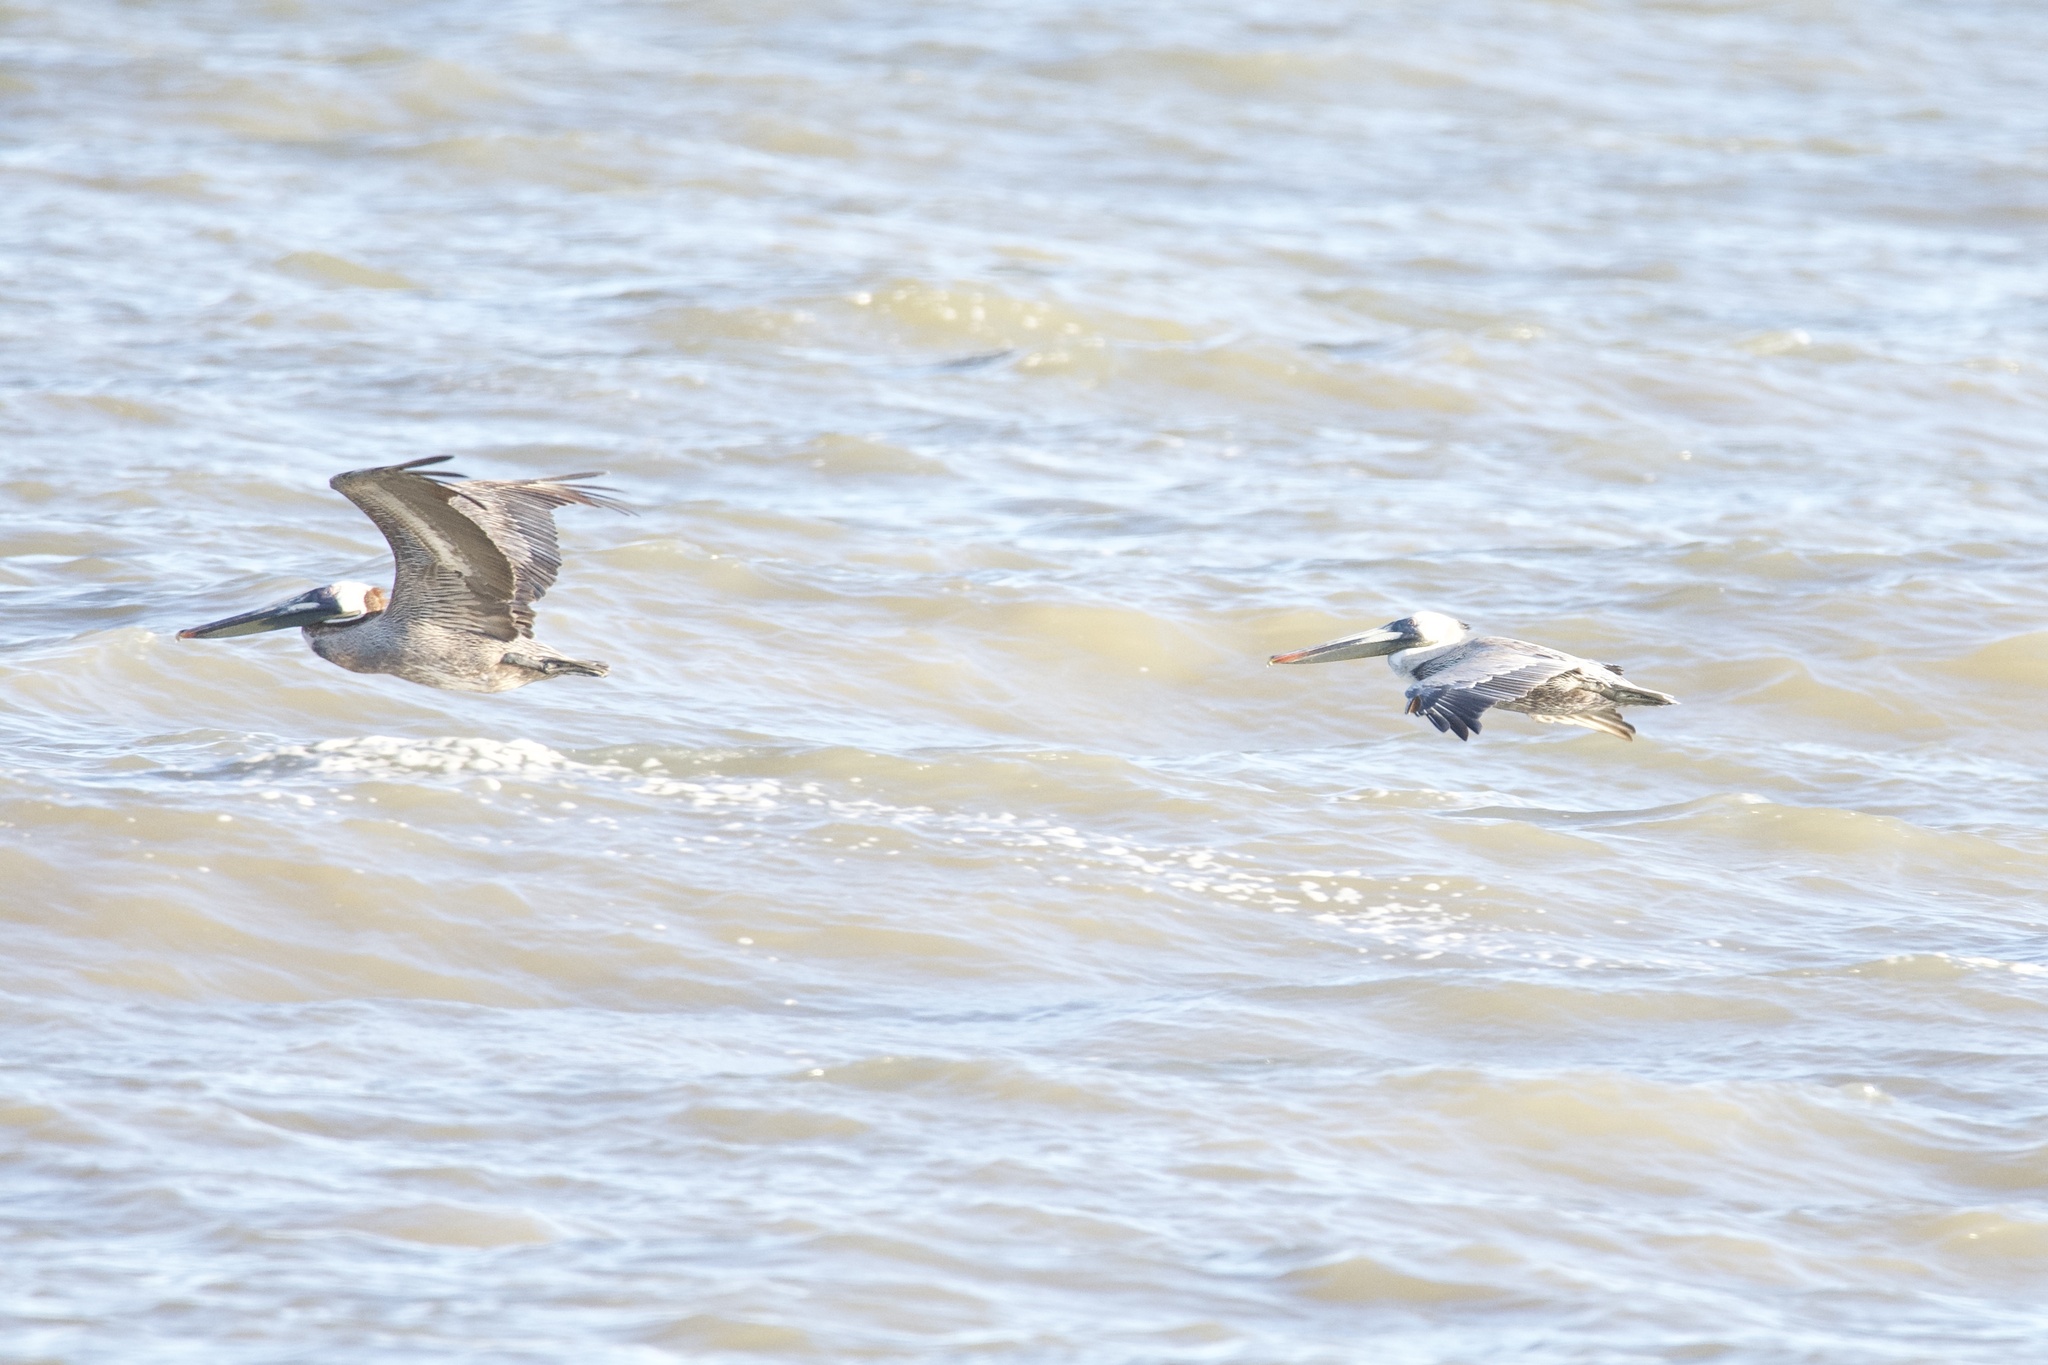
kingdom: Animalia
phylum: Chordata
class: Aves
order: Pelecaniformes
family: Pelecanidae
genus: Pelecanus
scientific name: Pelecanus occidentalis
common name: Brown pelican
